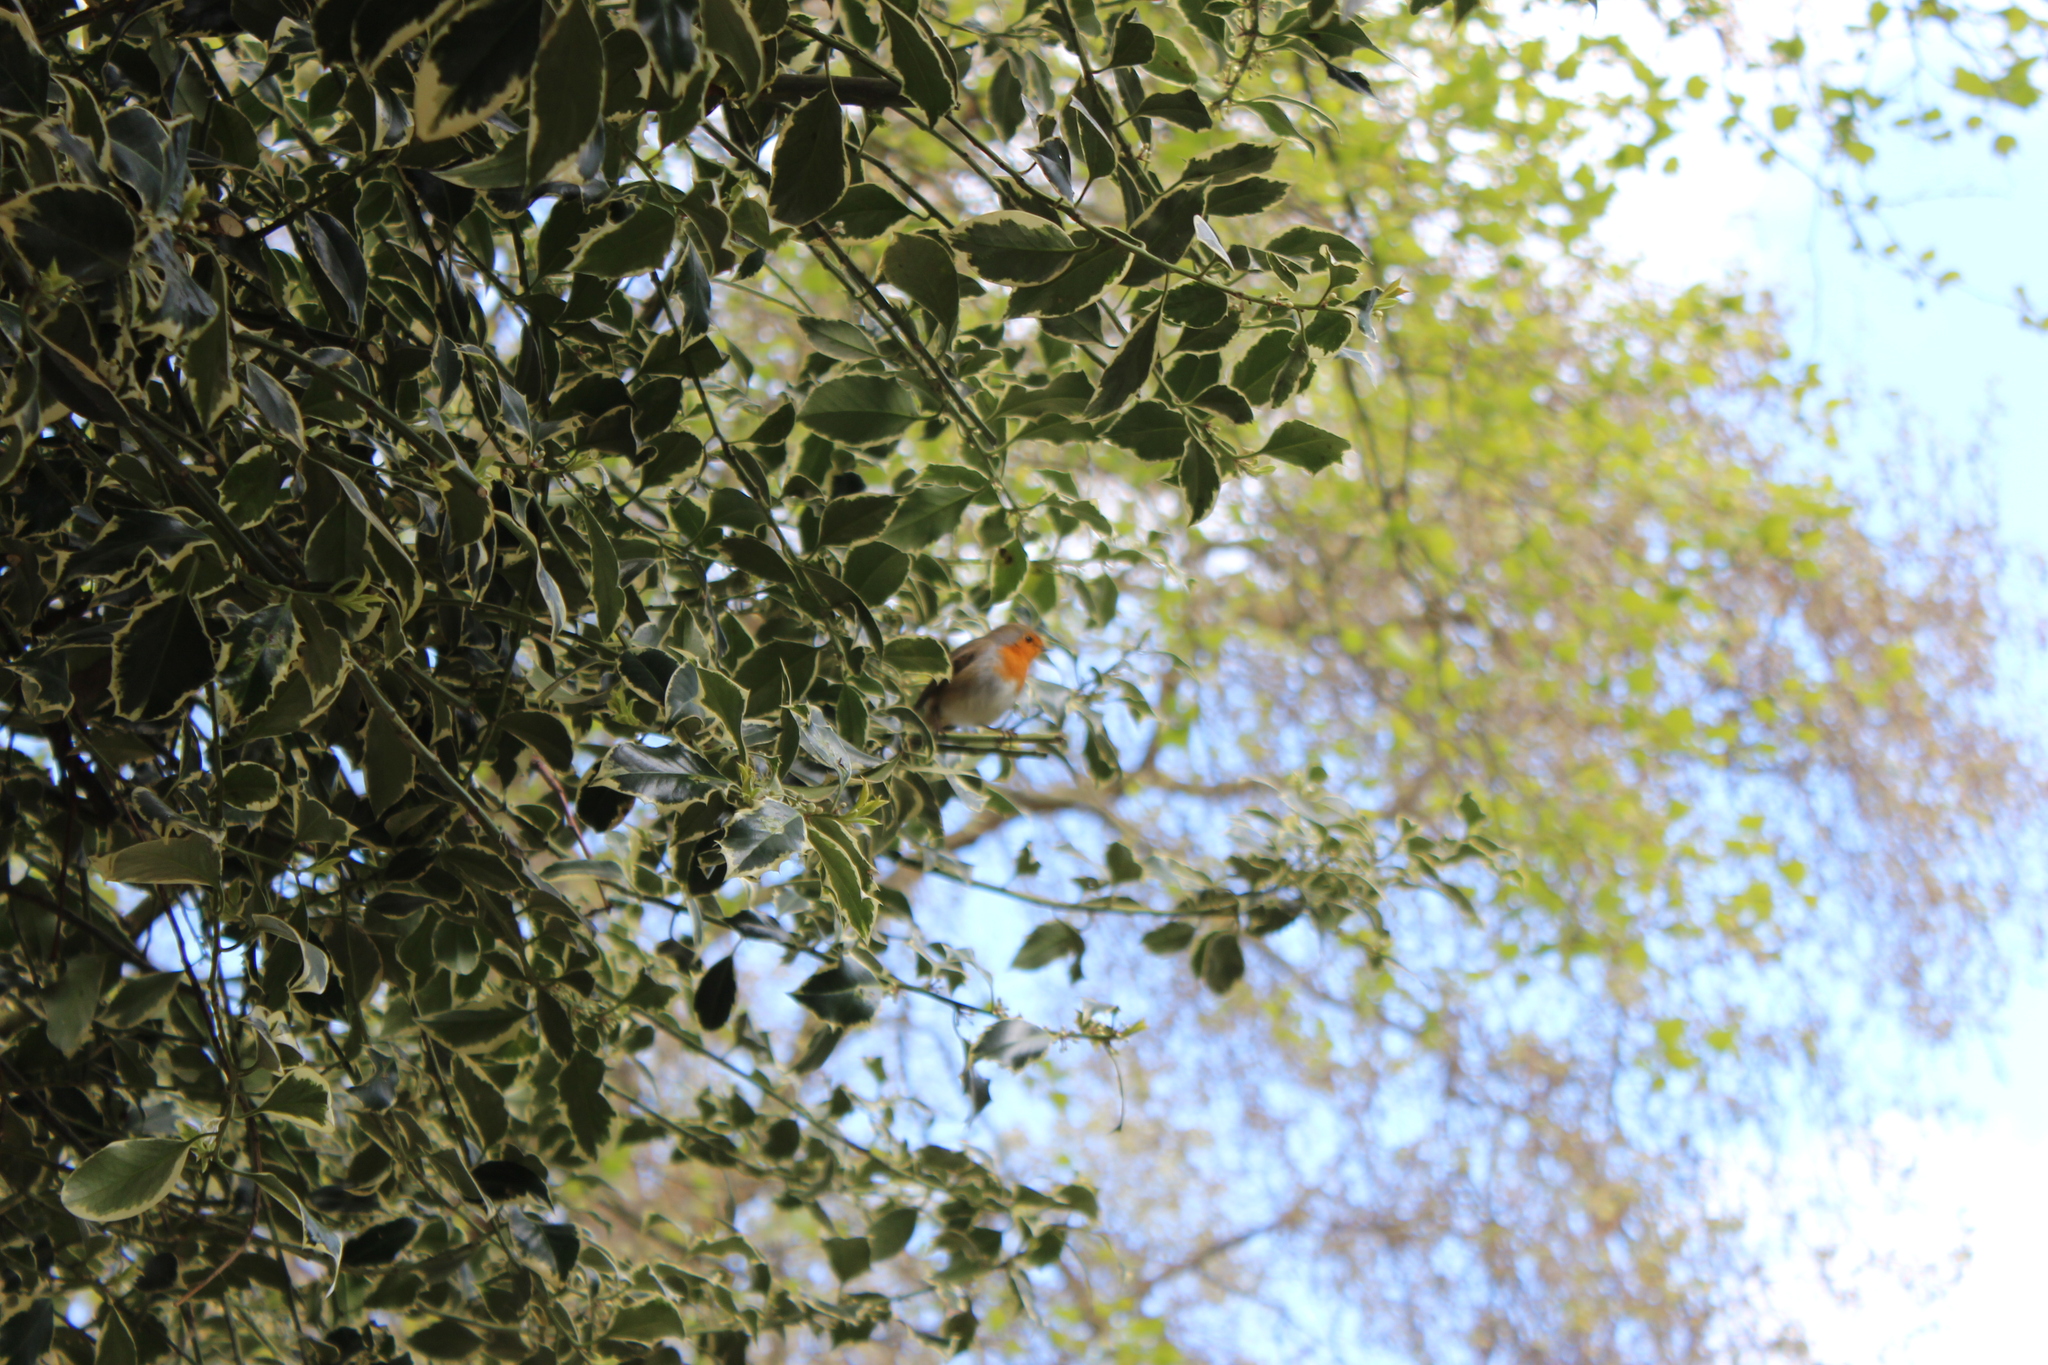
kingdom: Animalia
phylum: Chordata
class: Aves
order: Passeriformes
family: Muscicapidae
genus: Erithacus
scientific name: Erithacus rubecula
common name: European robin
